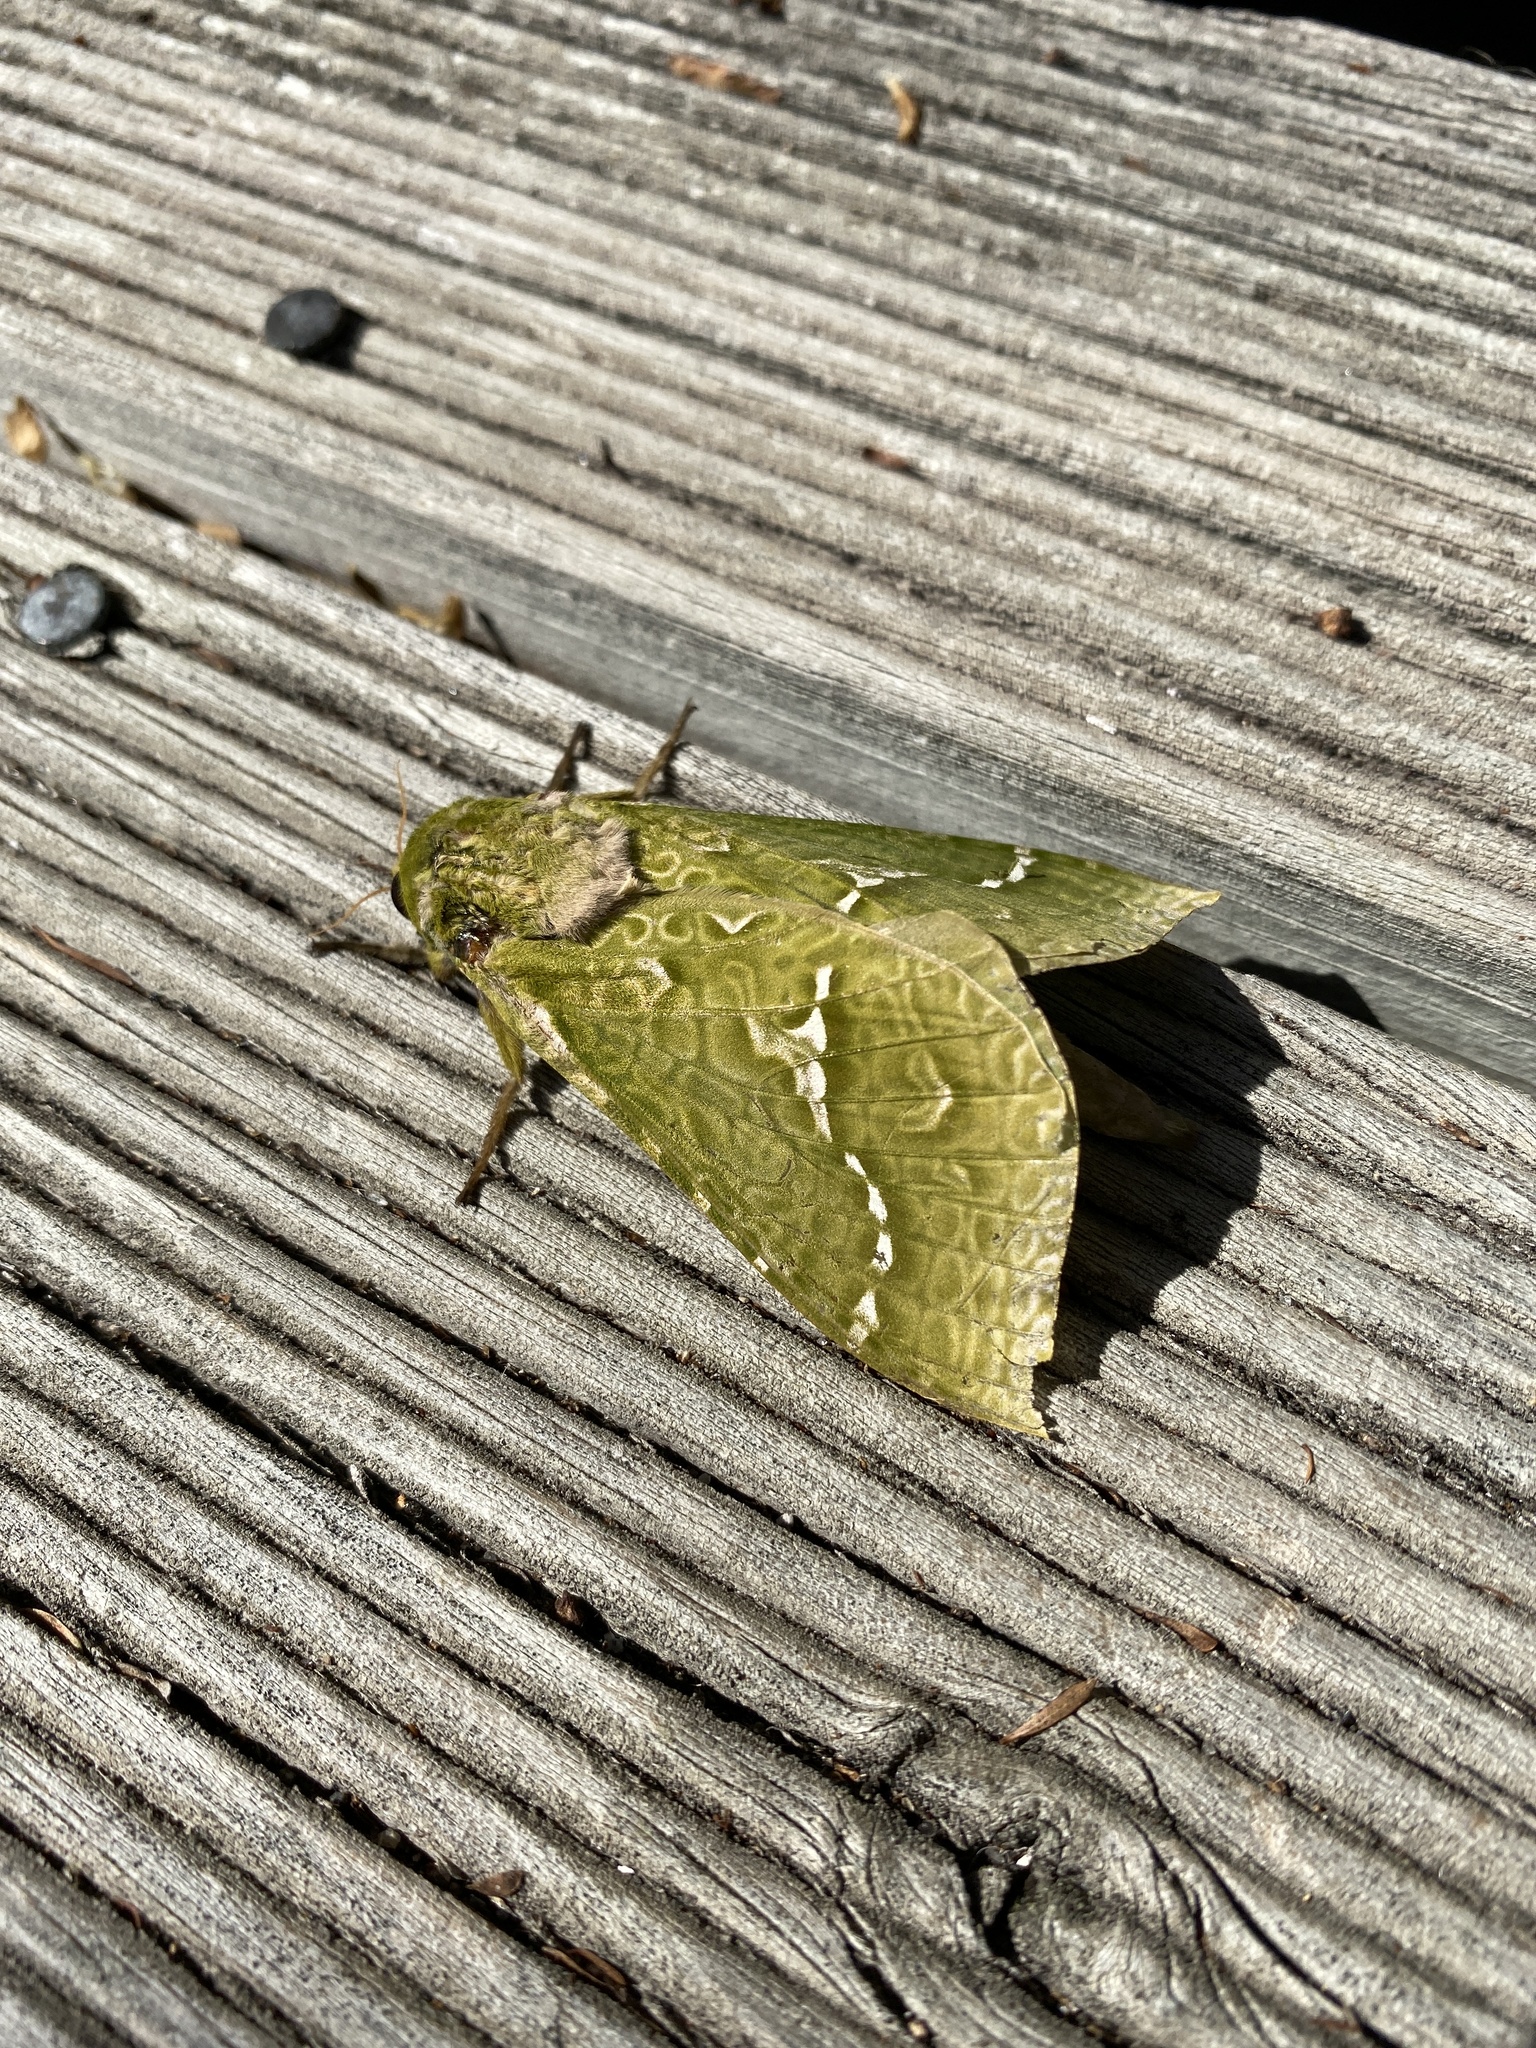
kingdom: Animalia
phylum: Arthropoda
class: Insecta
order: Lepidoptera
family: Hepialidae
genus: Aenetus
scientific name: Aenetus virescens
